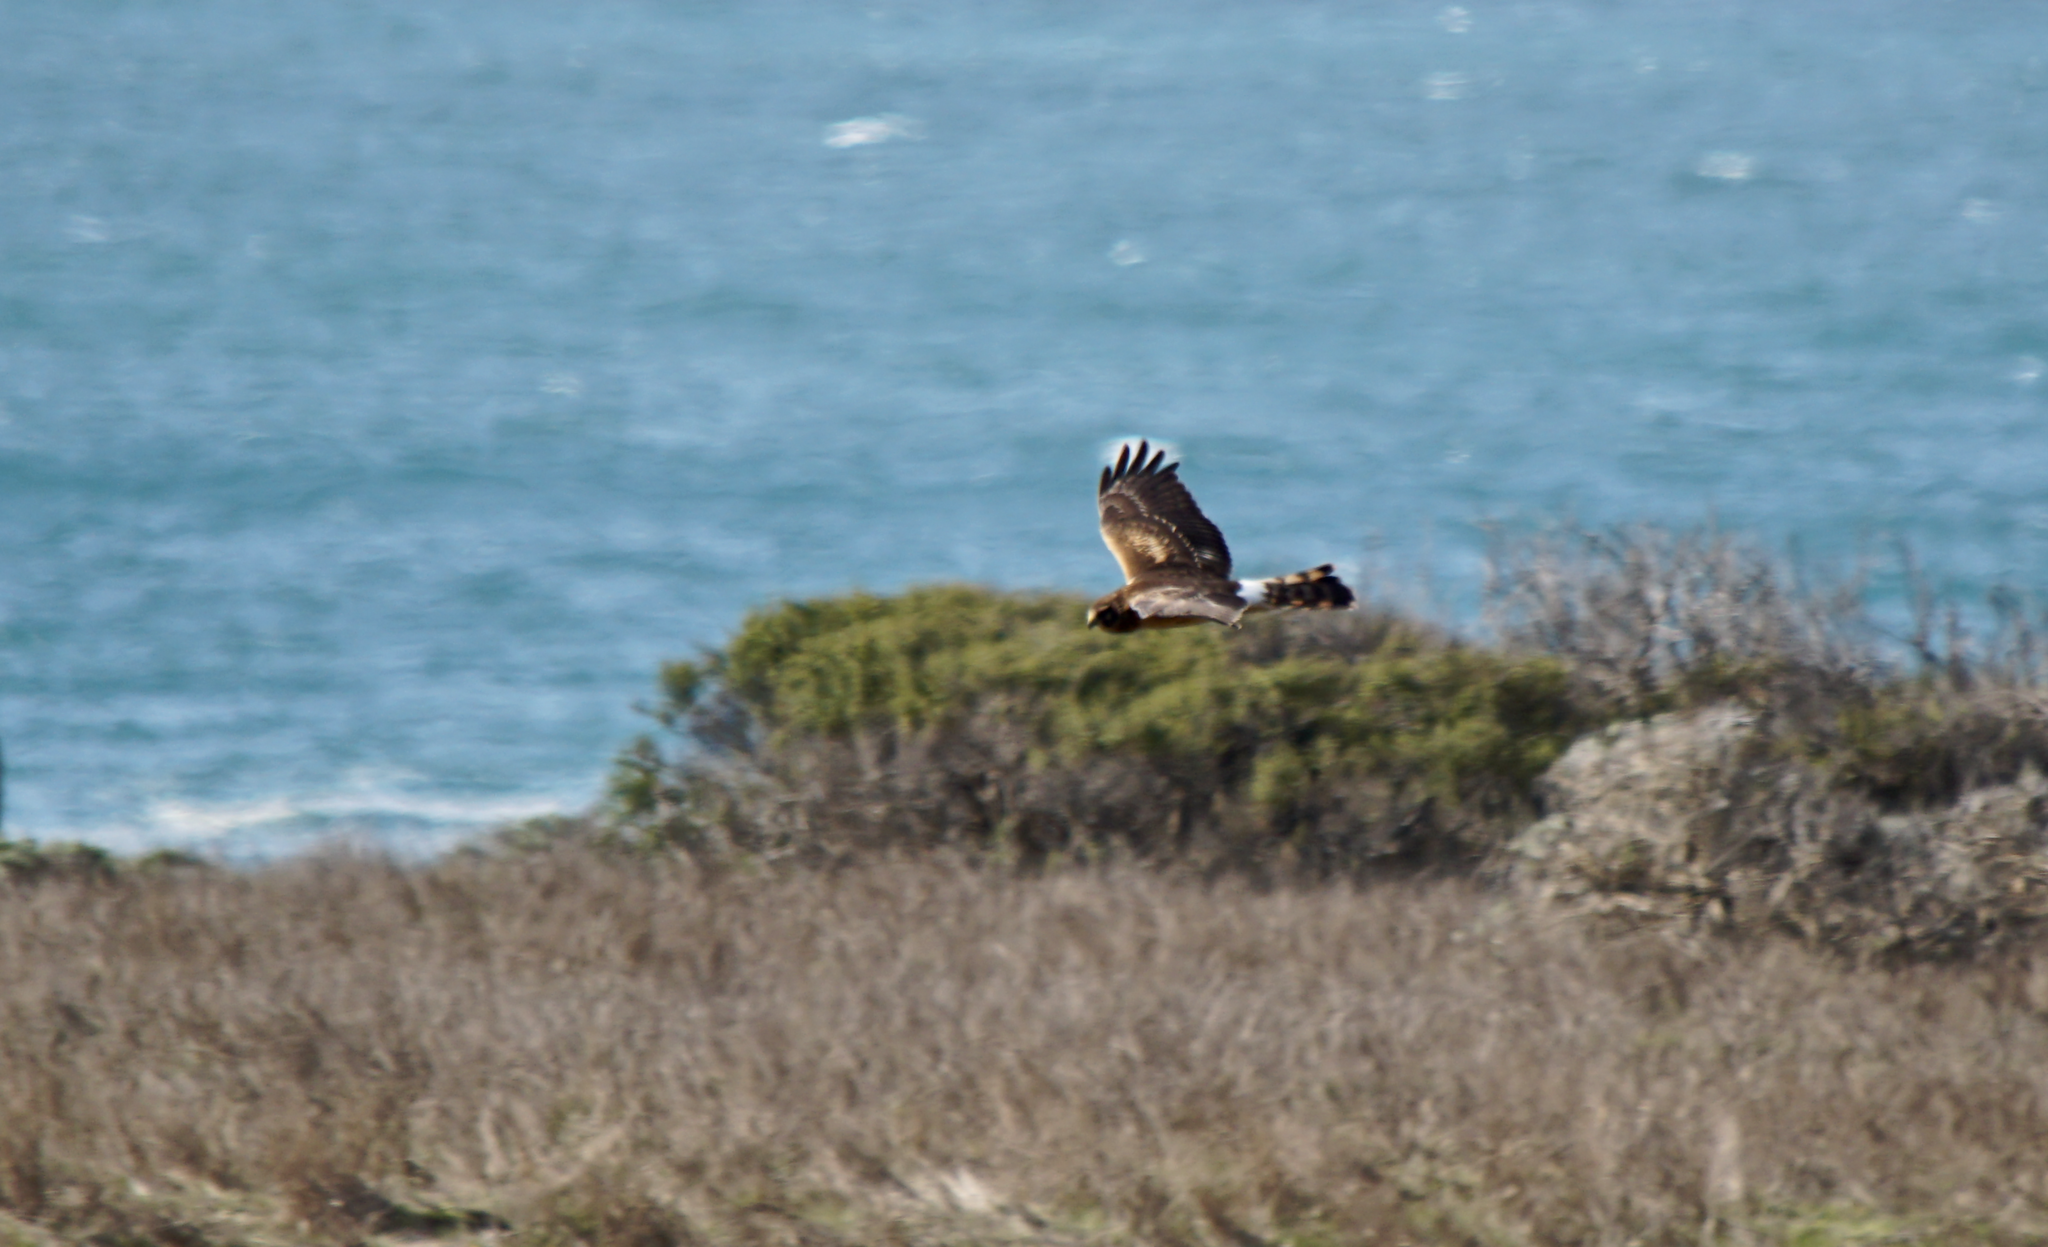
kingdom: Animalia
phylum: Chordata
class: Aves
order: Accipitriformes
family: Accipitridae
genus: Circus
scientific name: Circus cyaneus
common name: Hen harrier
